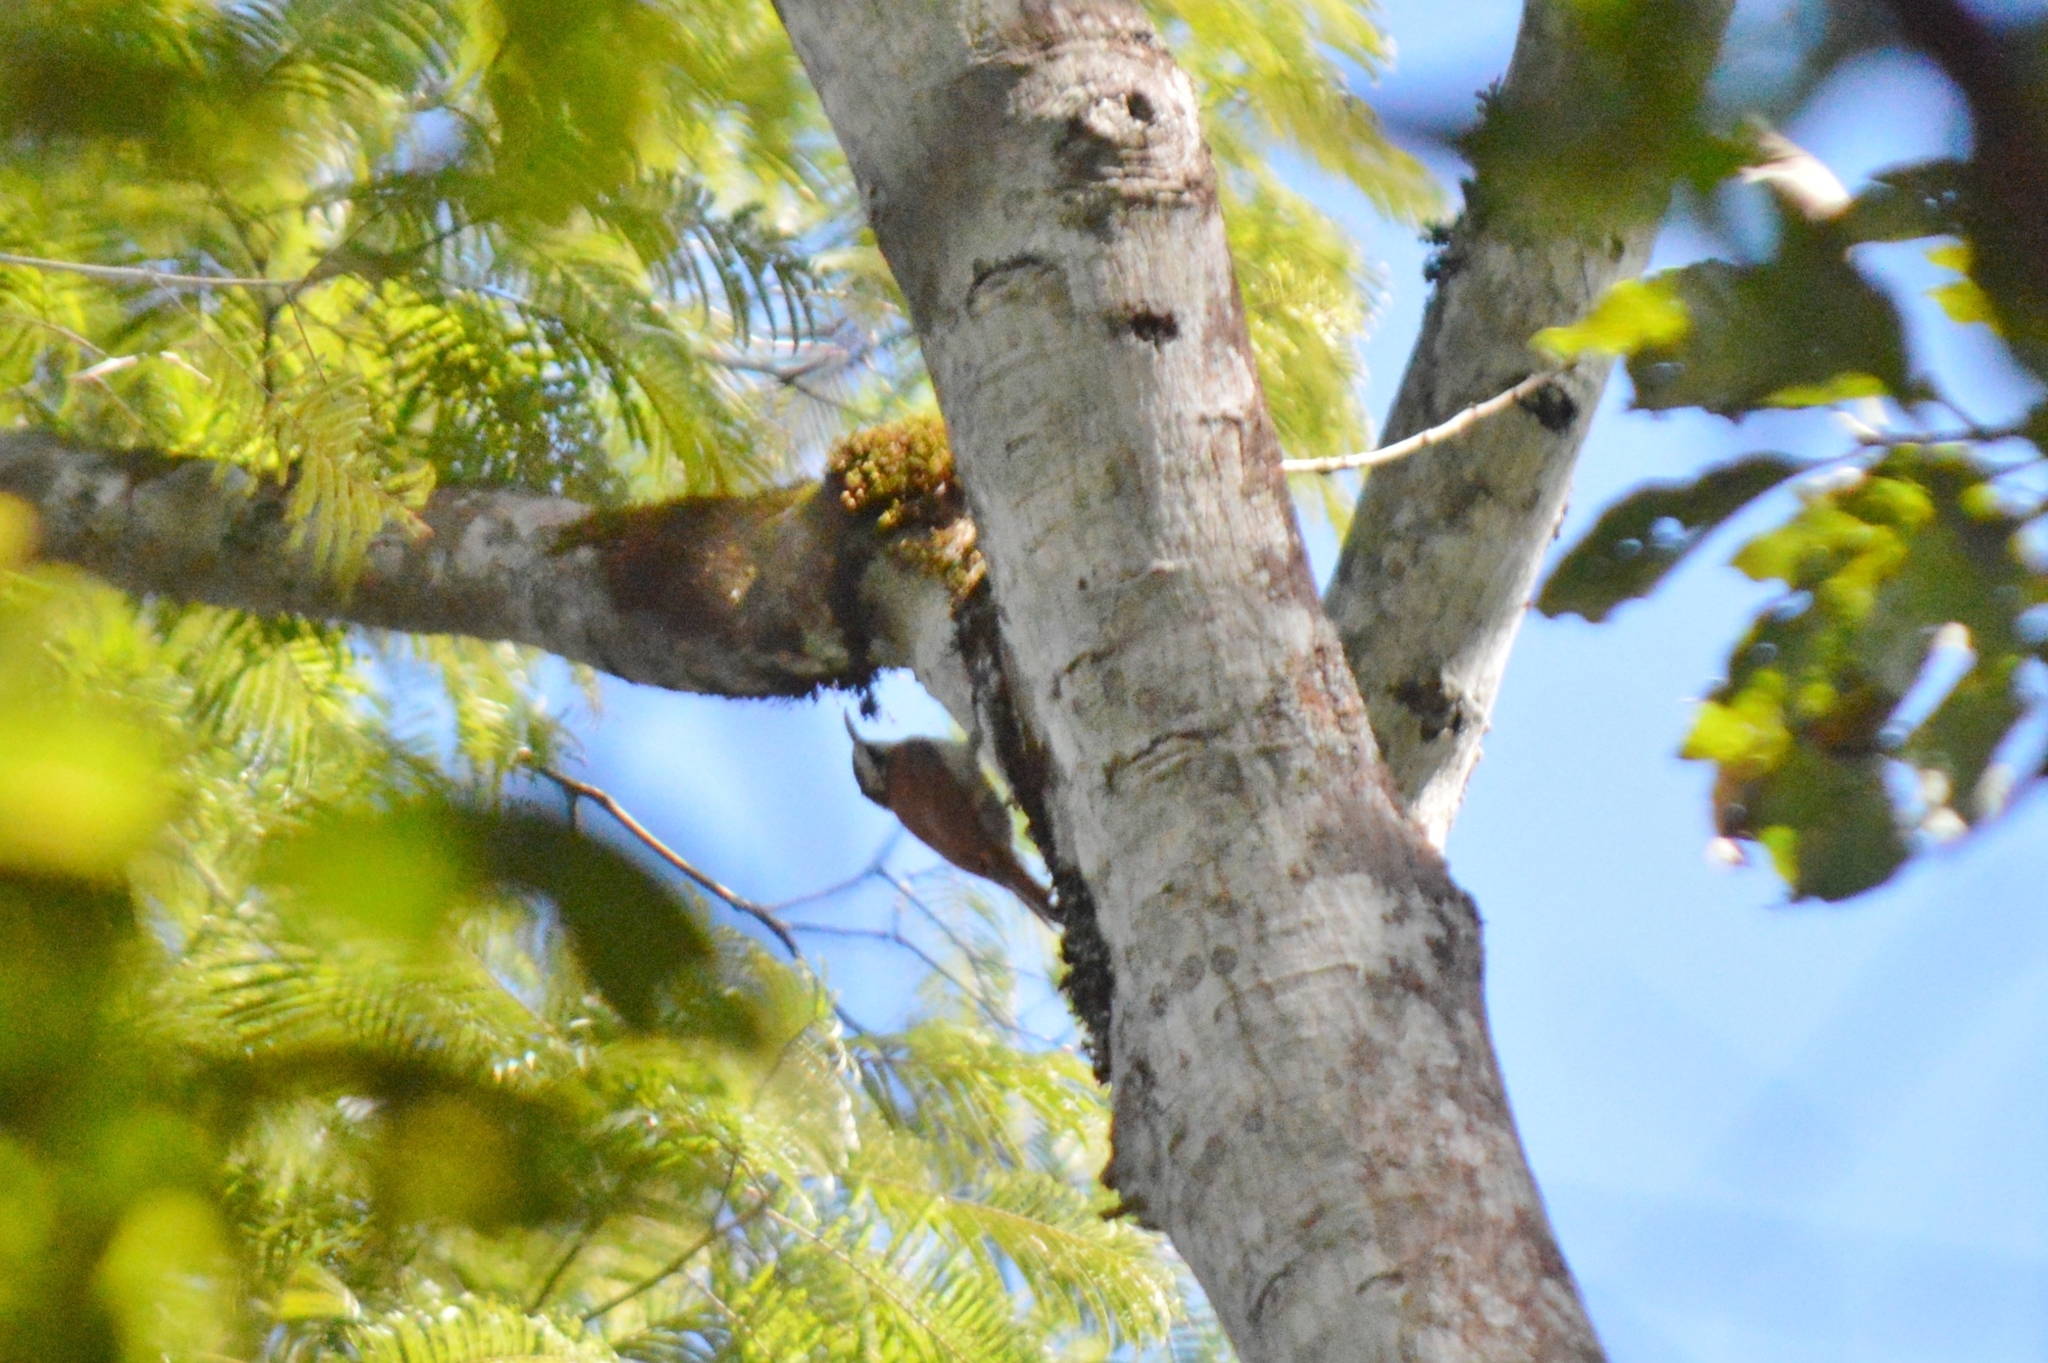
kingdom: Animalia
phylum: Chordata
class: Aves
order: Passeriformes
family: Furnariidae
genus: Lepidocolaptes
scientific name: Lepidocolaptes angustirostris
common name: Narrow-billed woodcreeper
